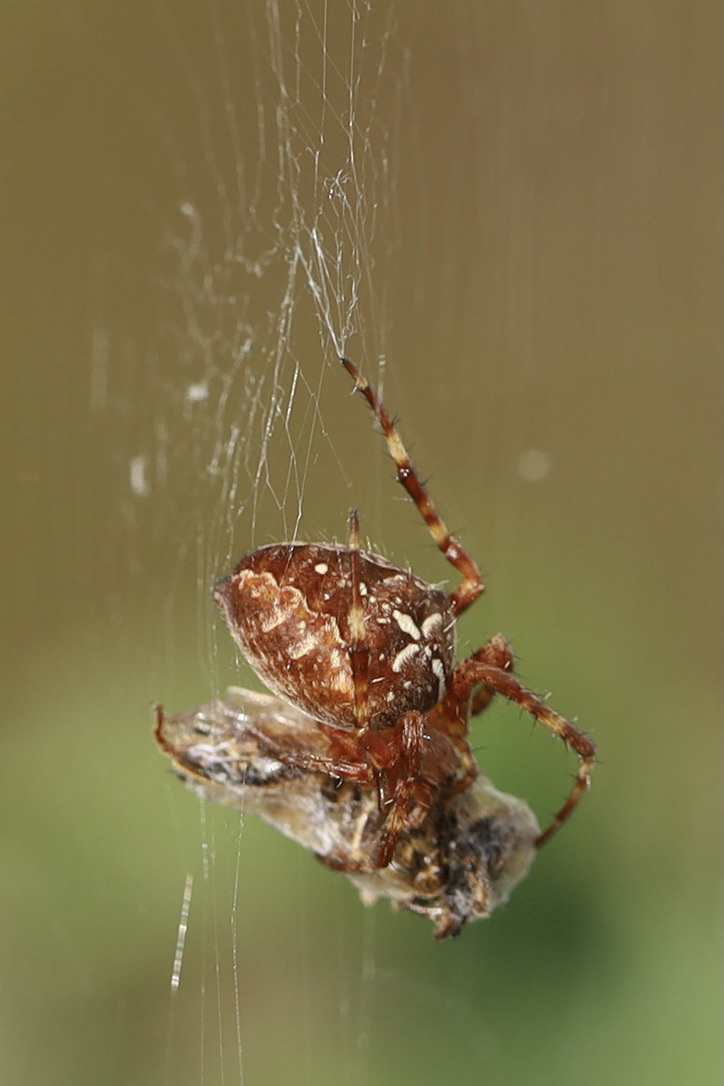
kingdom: Animalia
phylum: Arthropoda
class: Arachnida
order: Araneae
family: Araneidae
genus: Araneus
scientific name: Araneus diadematus
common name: Cross orbweaver
